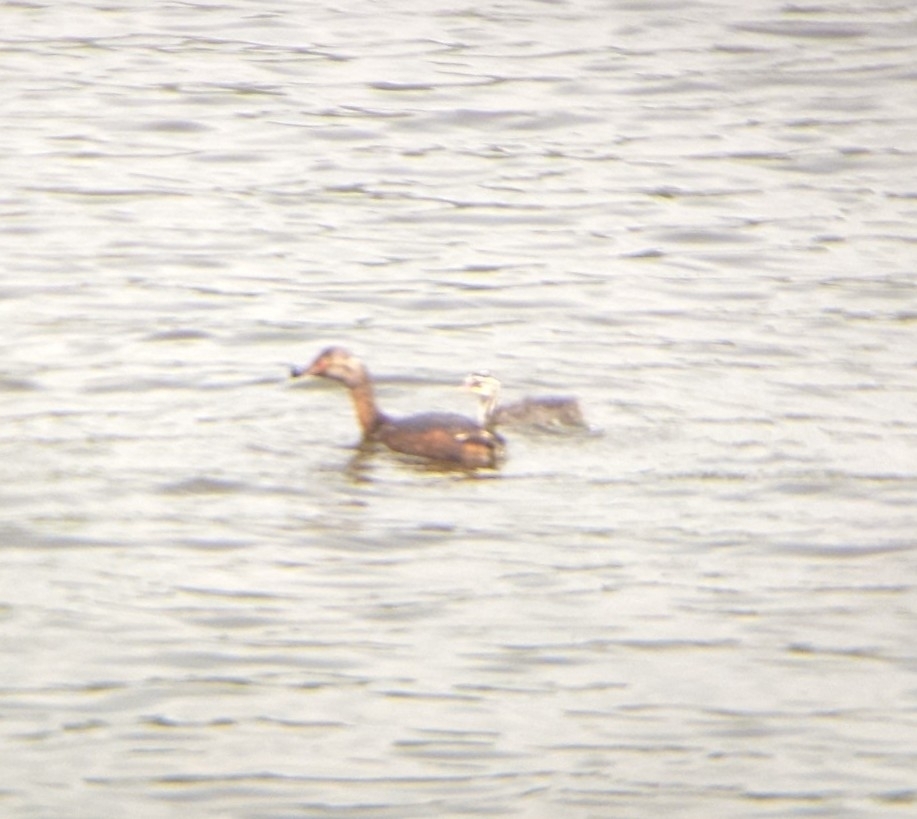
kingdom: Animalia
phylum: Chordata
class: Aves
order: Podicipediformes
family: Podicipedidae
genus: Podiceps
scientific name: Podiceps auritus
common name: Horned grebe
